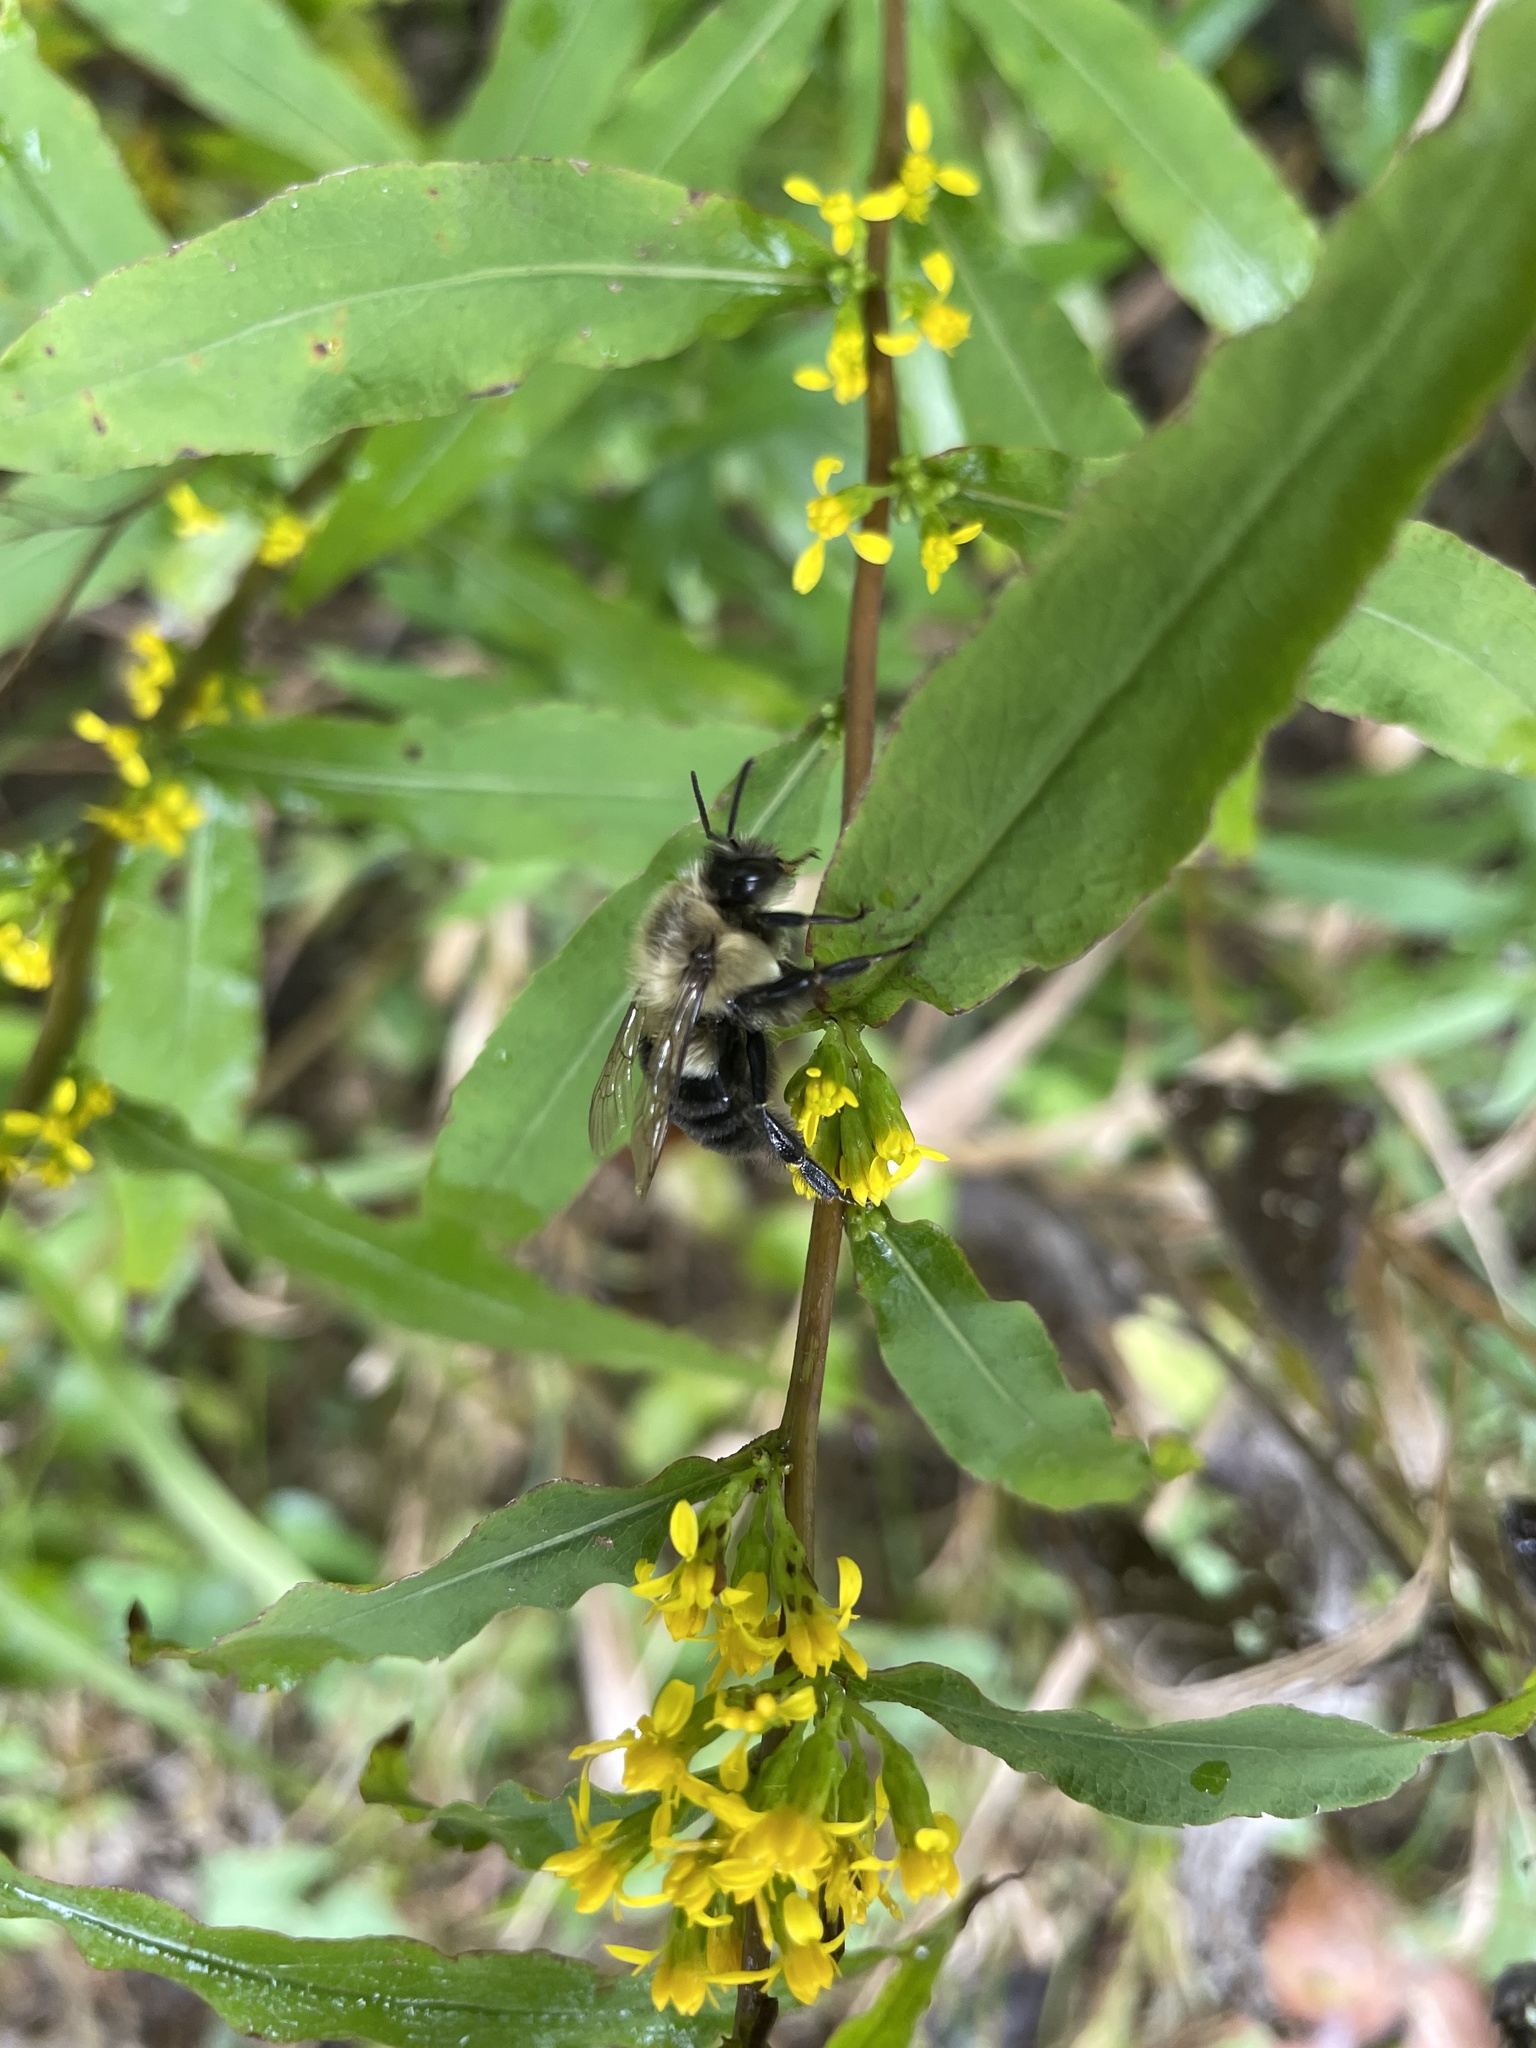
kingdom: Animalia
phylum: Arthropoda
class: Insecta
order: Hymenoptera
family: Apidae
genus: Bombus
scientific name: Bombus impatiens
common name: Common eastern bumble bee
